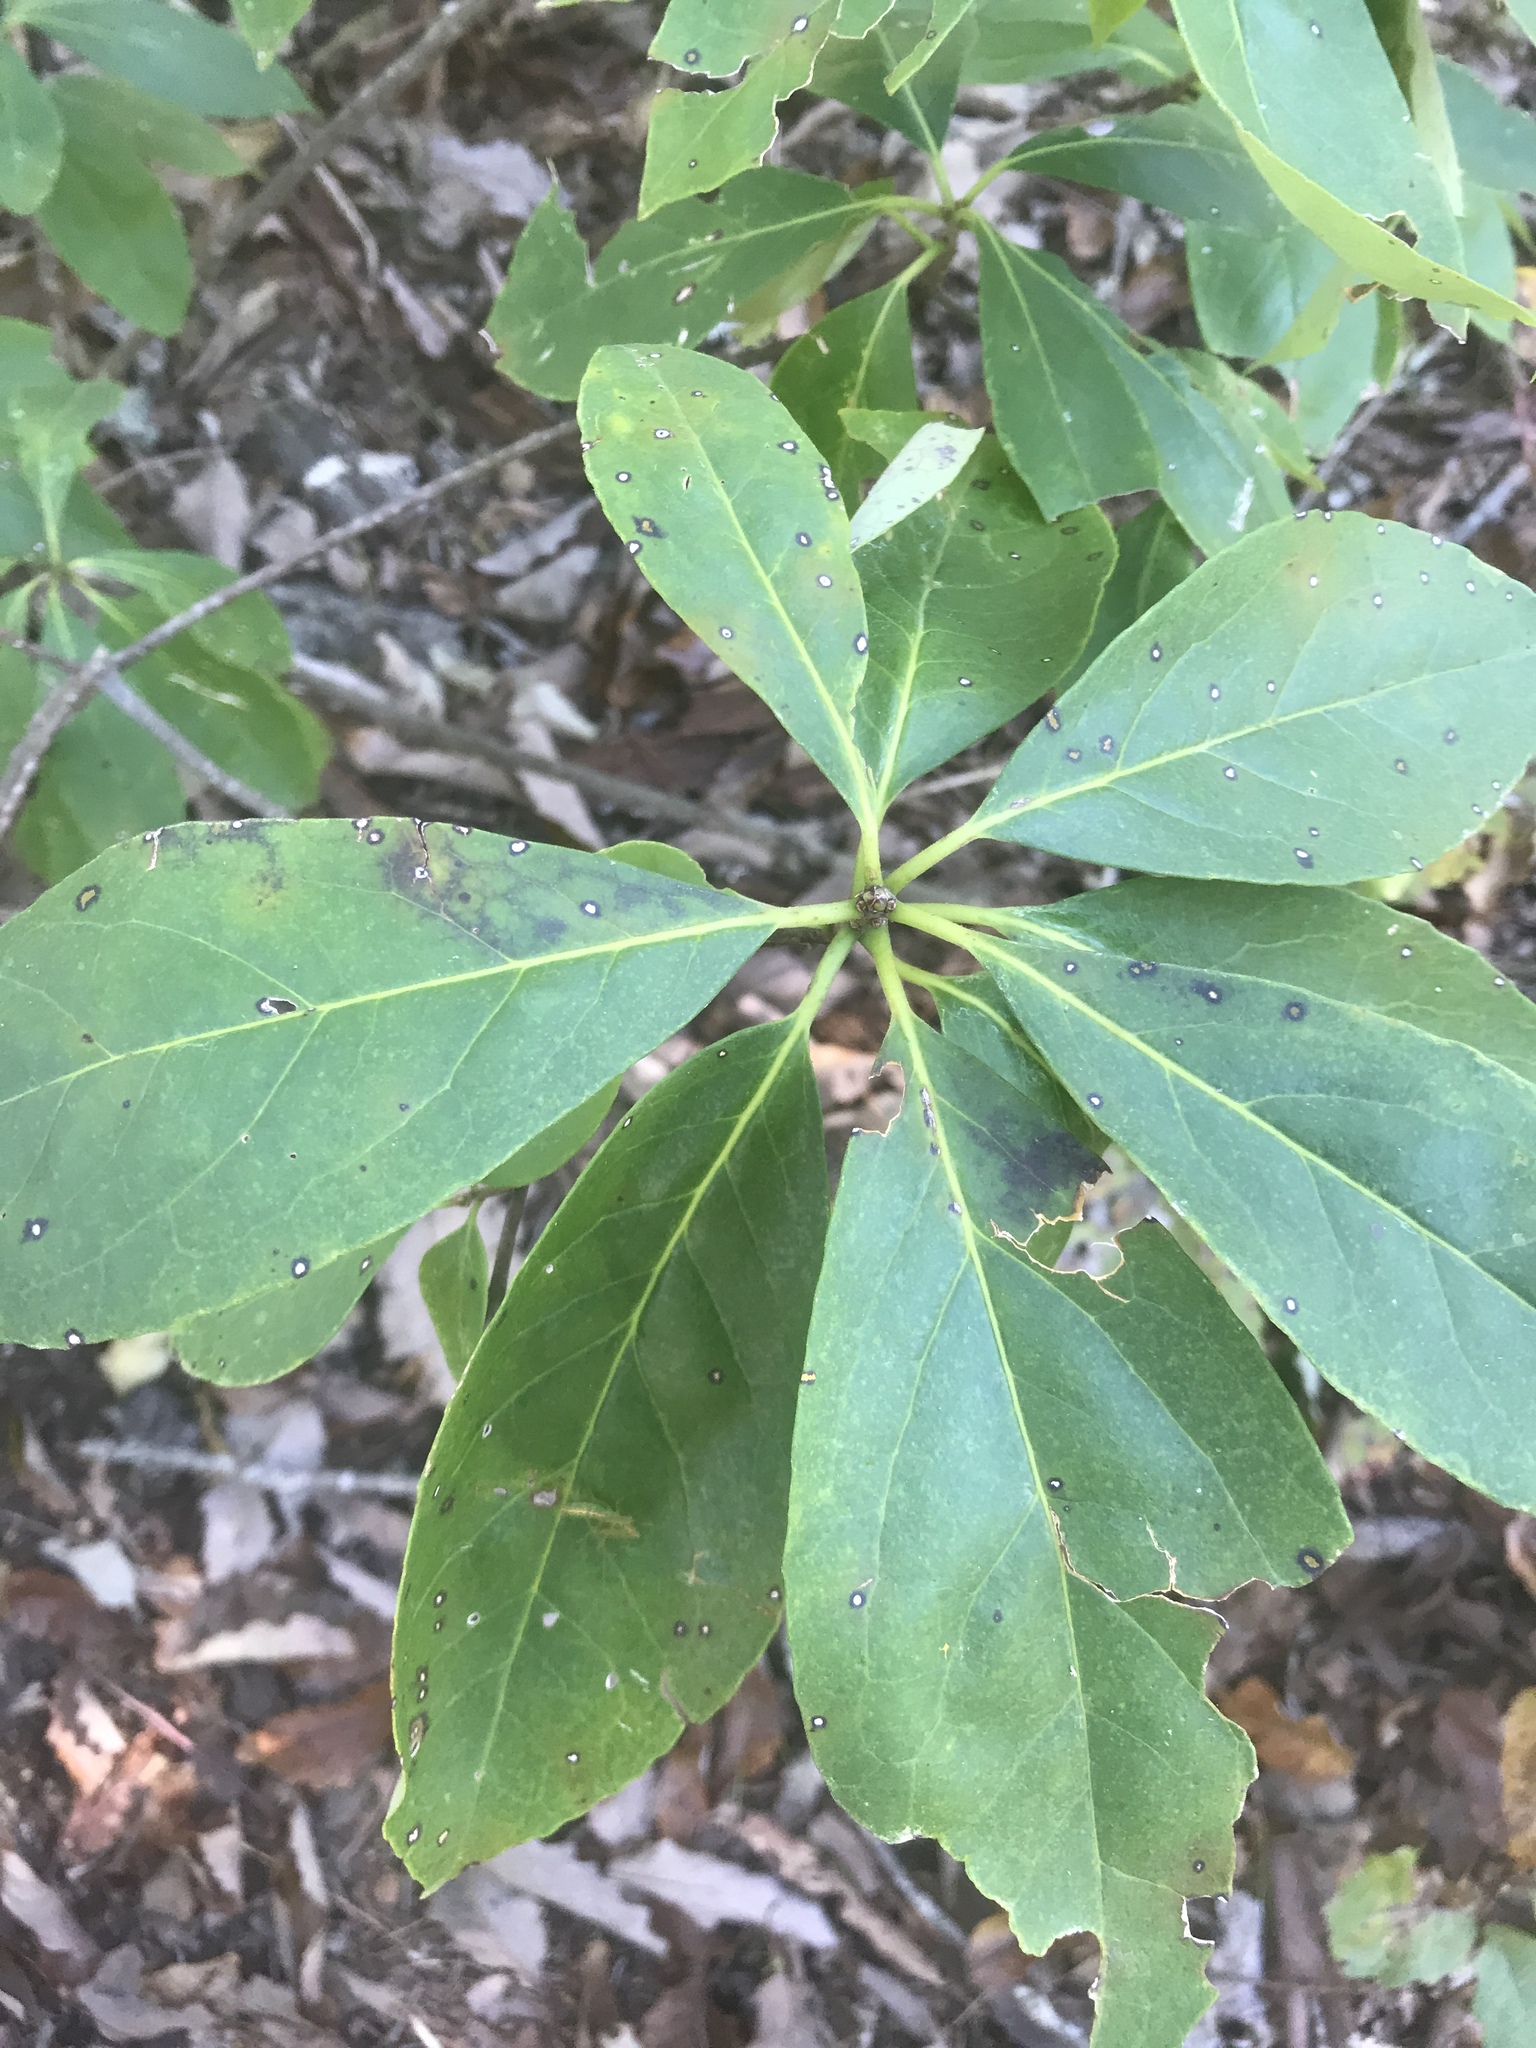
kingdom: Plantae
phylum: Tracheophyta
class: Magnoliopsida
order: Ericales
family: Symplocaceae
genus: Symplocos
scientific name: Symplocos tinctoria
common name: Horse-sugar
